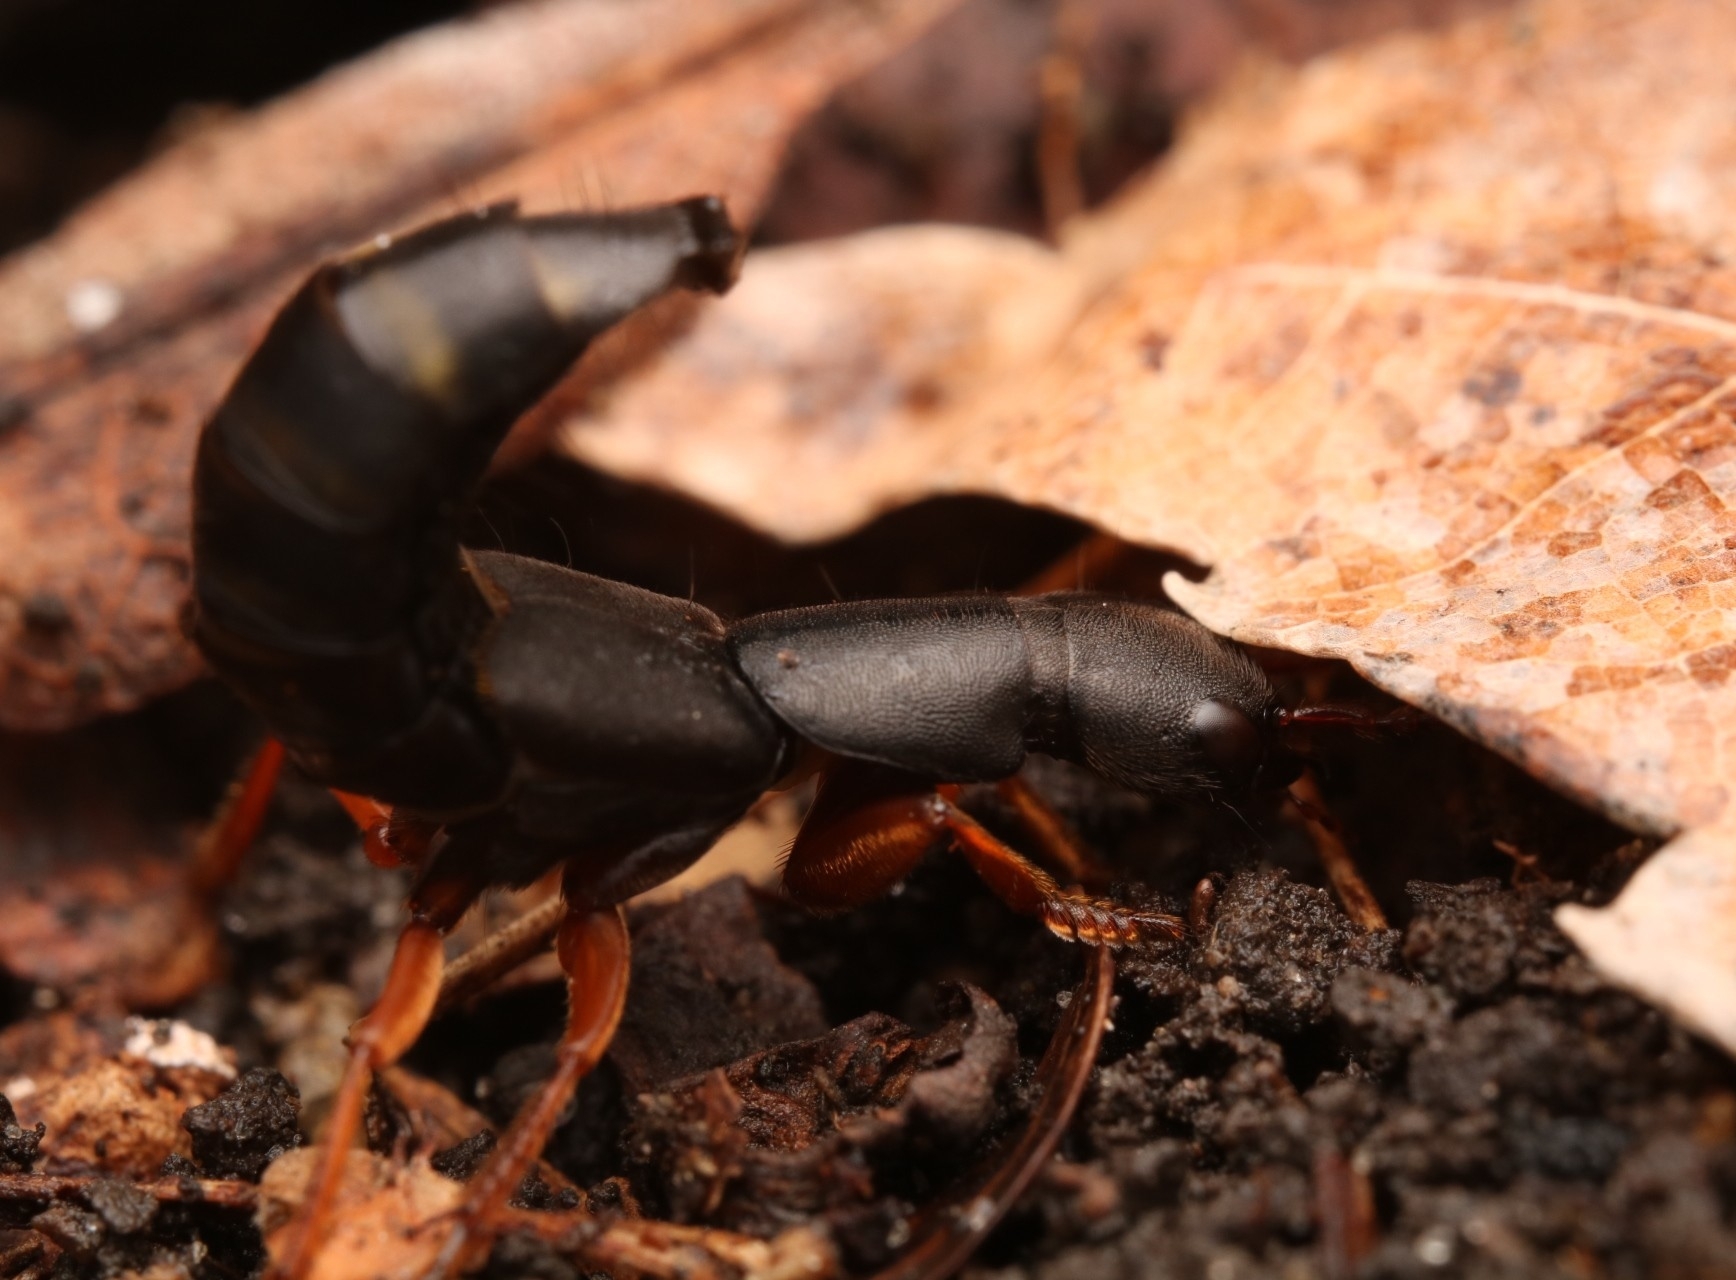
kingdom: Animalia
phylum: Arthropoda
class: Insecta
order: Coleoptera
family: Staphylinidae
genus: Dinothenarus
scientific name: Dinothenarus badipes
